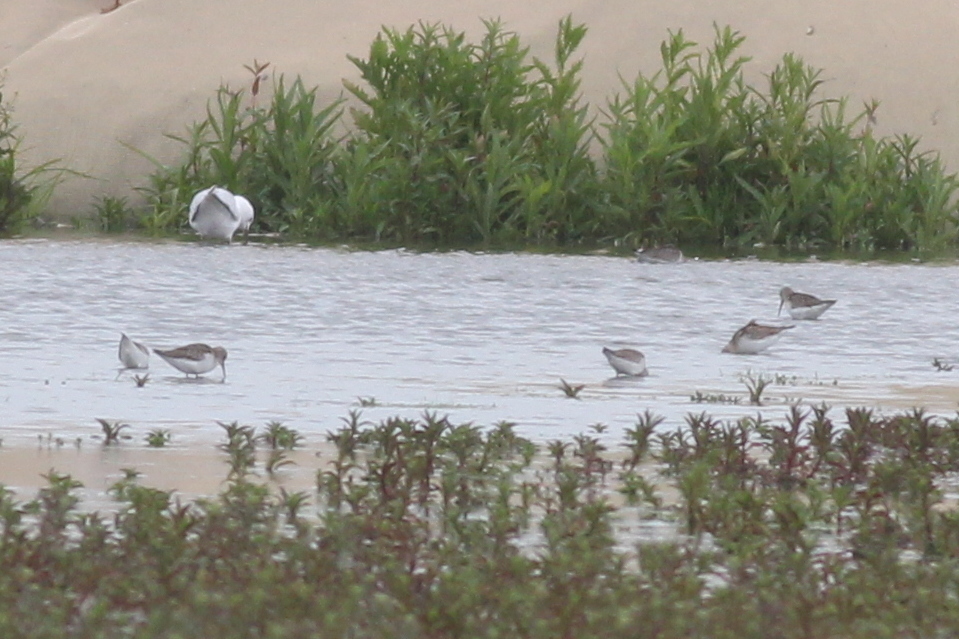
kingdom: Animalia
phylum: Chordata
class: Aves
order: Charadriiformes
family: Scolopacidae
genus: Calidris
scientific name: Calidris ferruginea
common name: Curlew sandpiper
